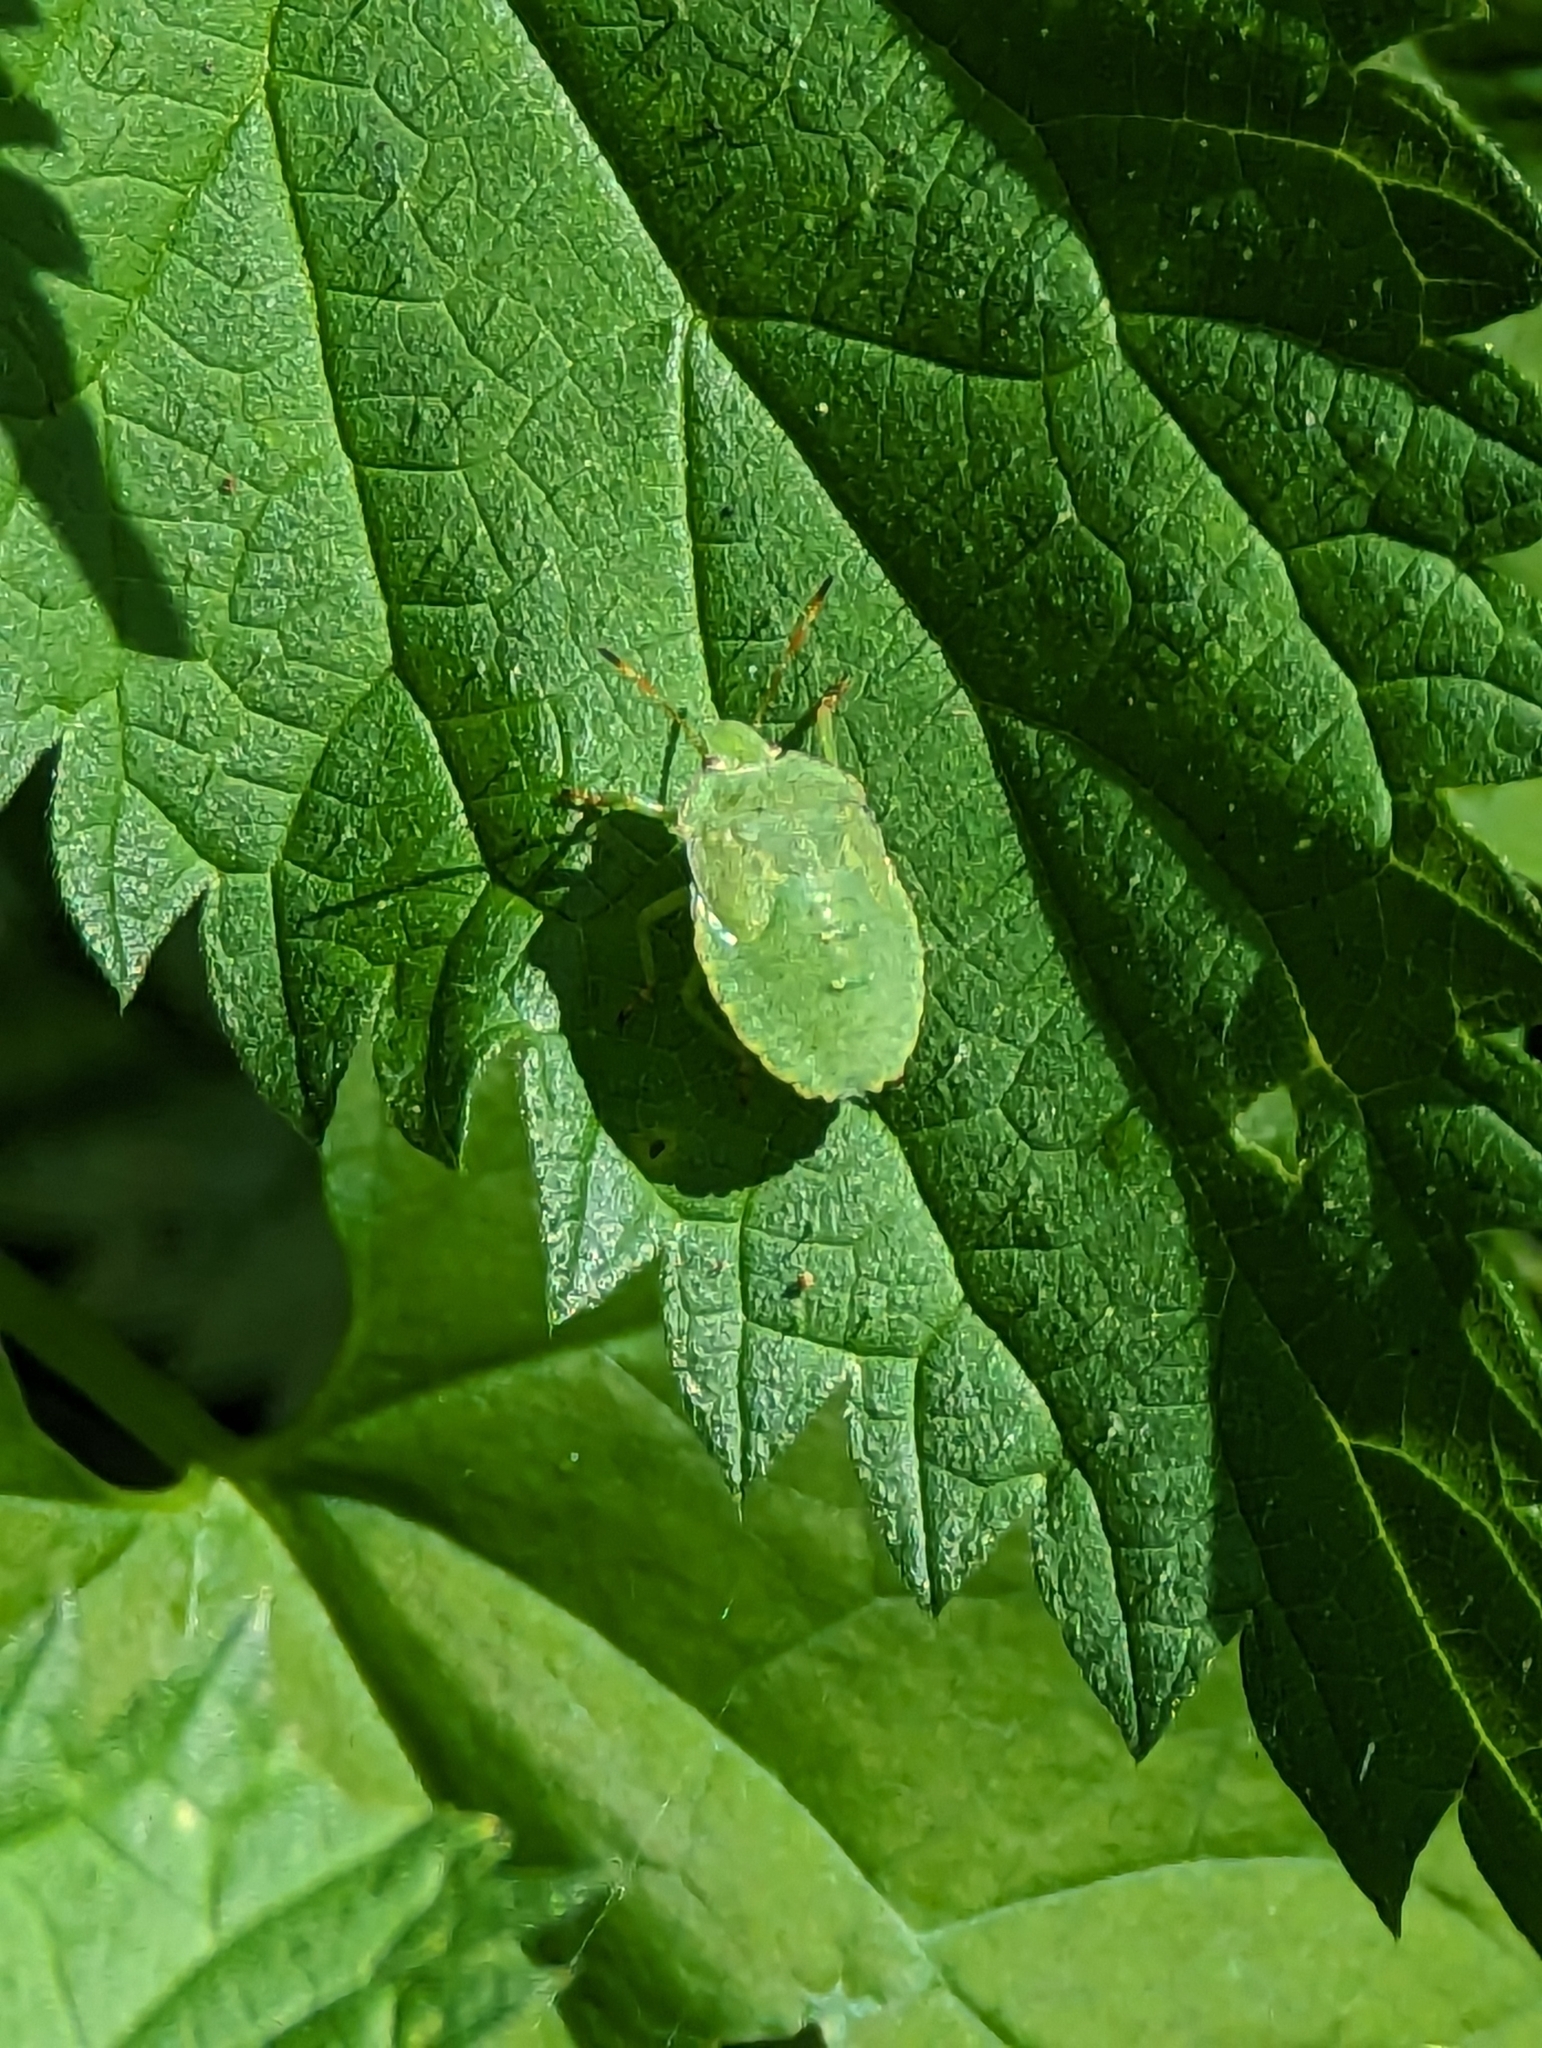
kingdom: Animalia
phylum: Arthropoda
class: Insecta
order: Hemiptera
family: Pentatomidae
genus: Palomena
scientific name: Palomena prasina
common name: Green shieldbug
